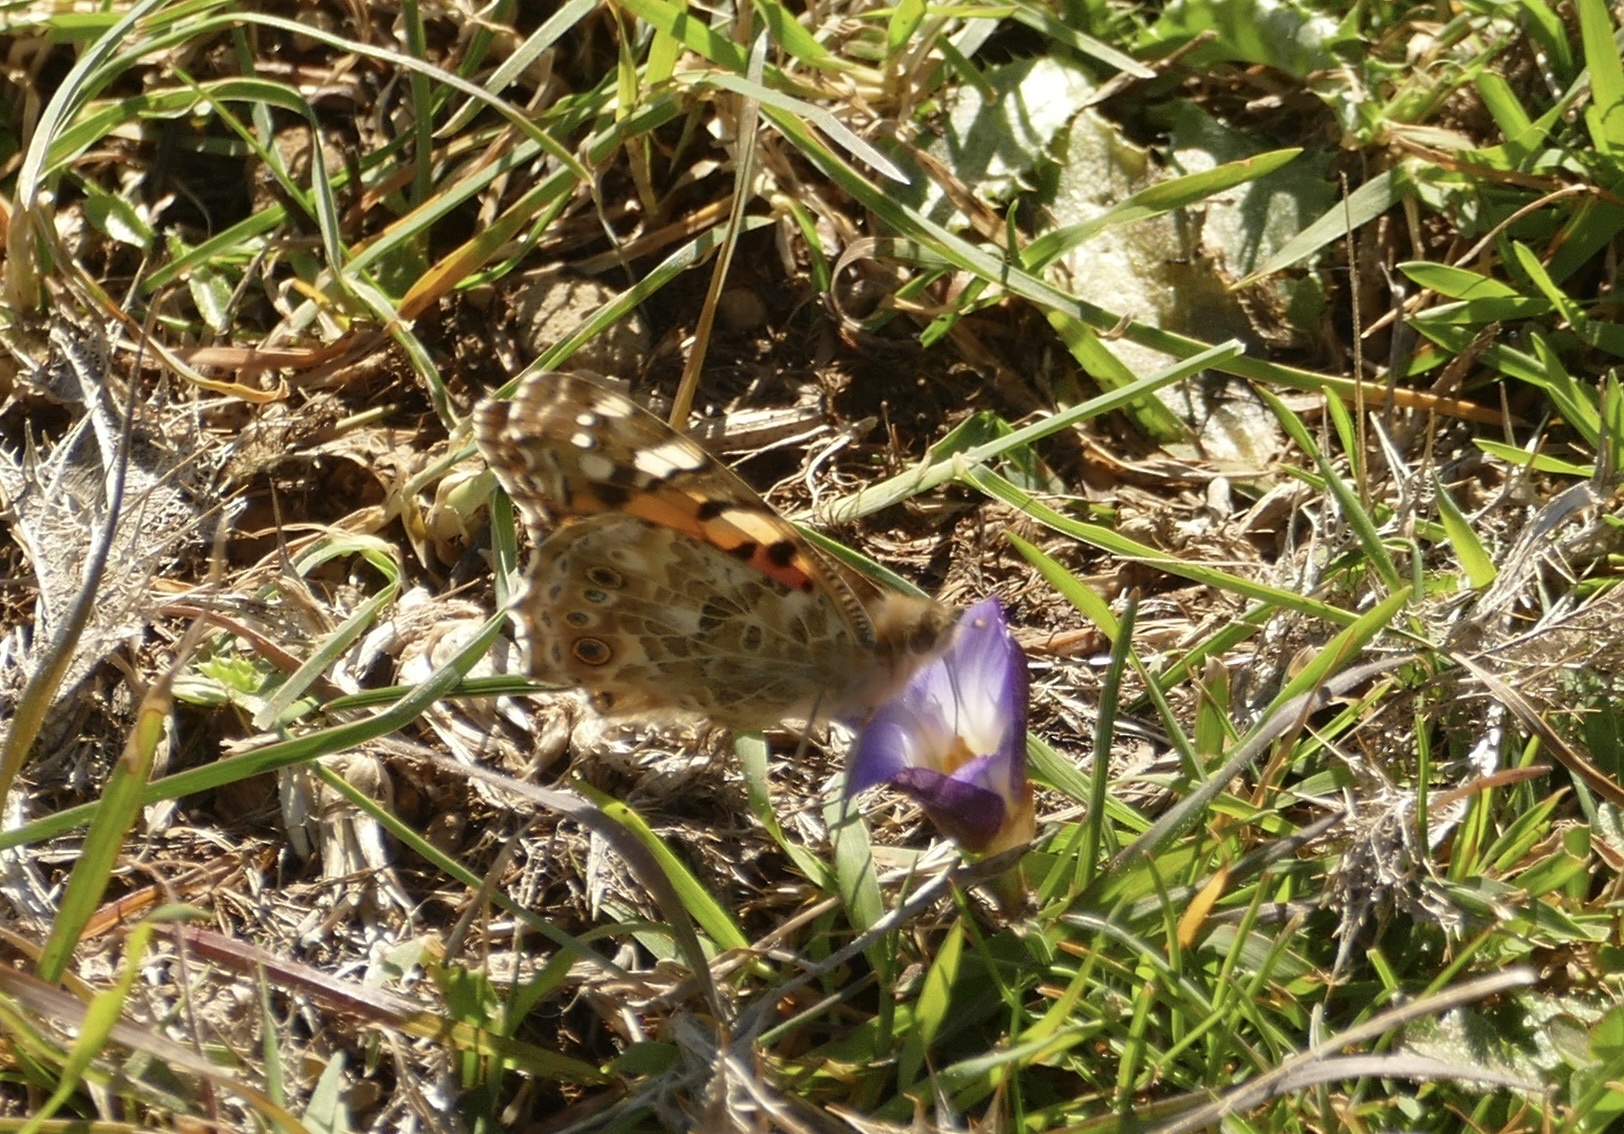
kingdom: Animalia
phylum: Arthropoda
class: Insecta
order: Lepidoptera
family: Nymphalidae
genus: Vanessa
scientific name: Vanessa cardui
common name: Painted lady
